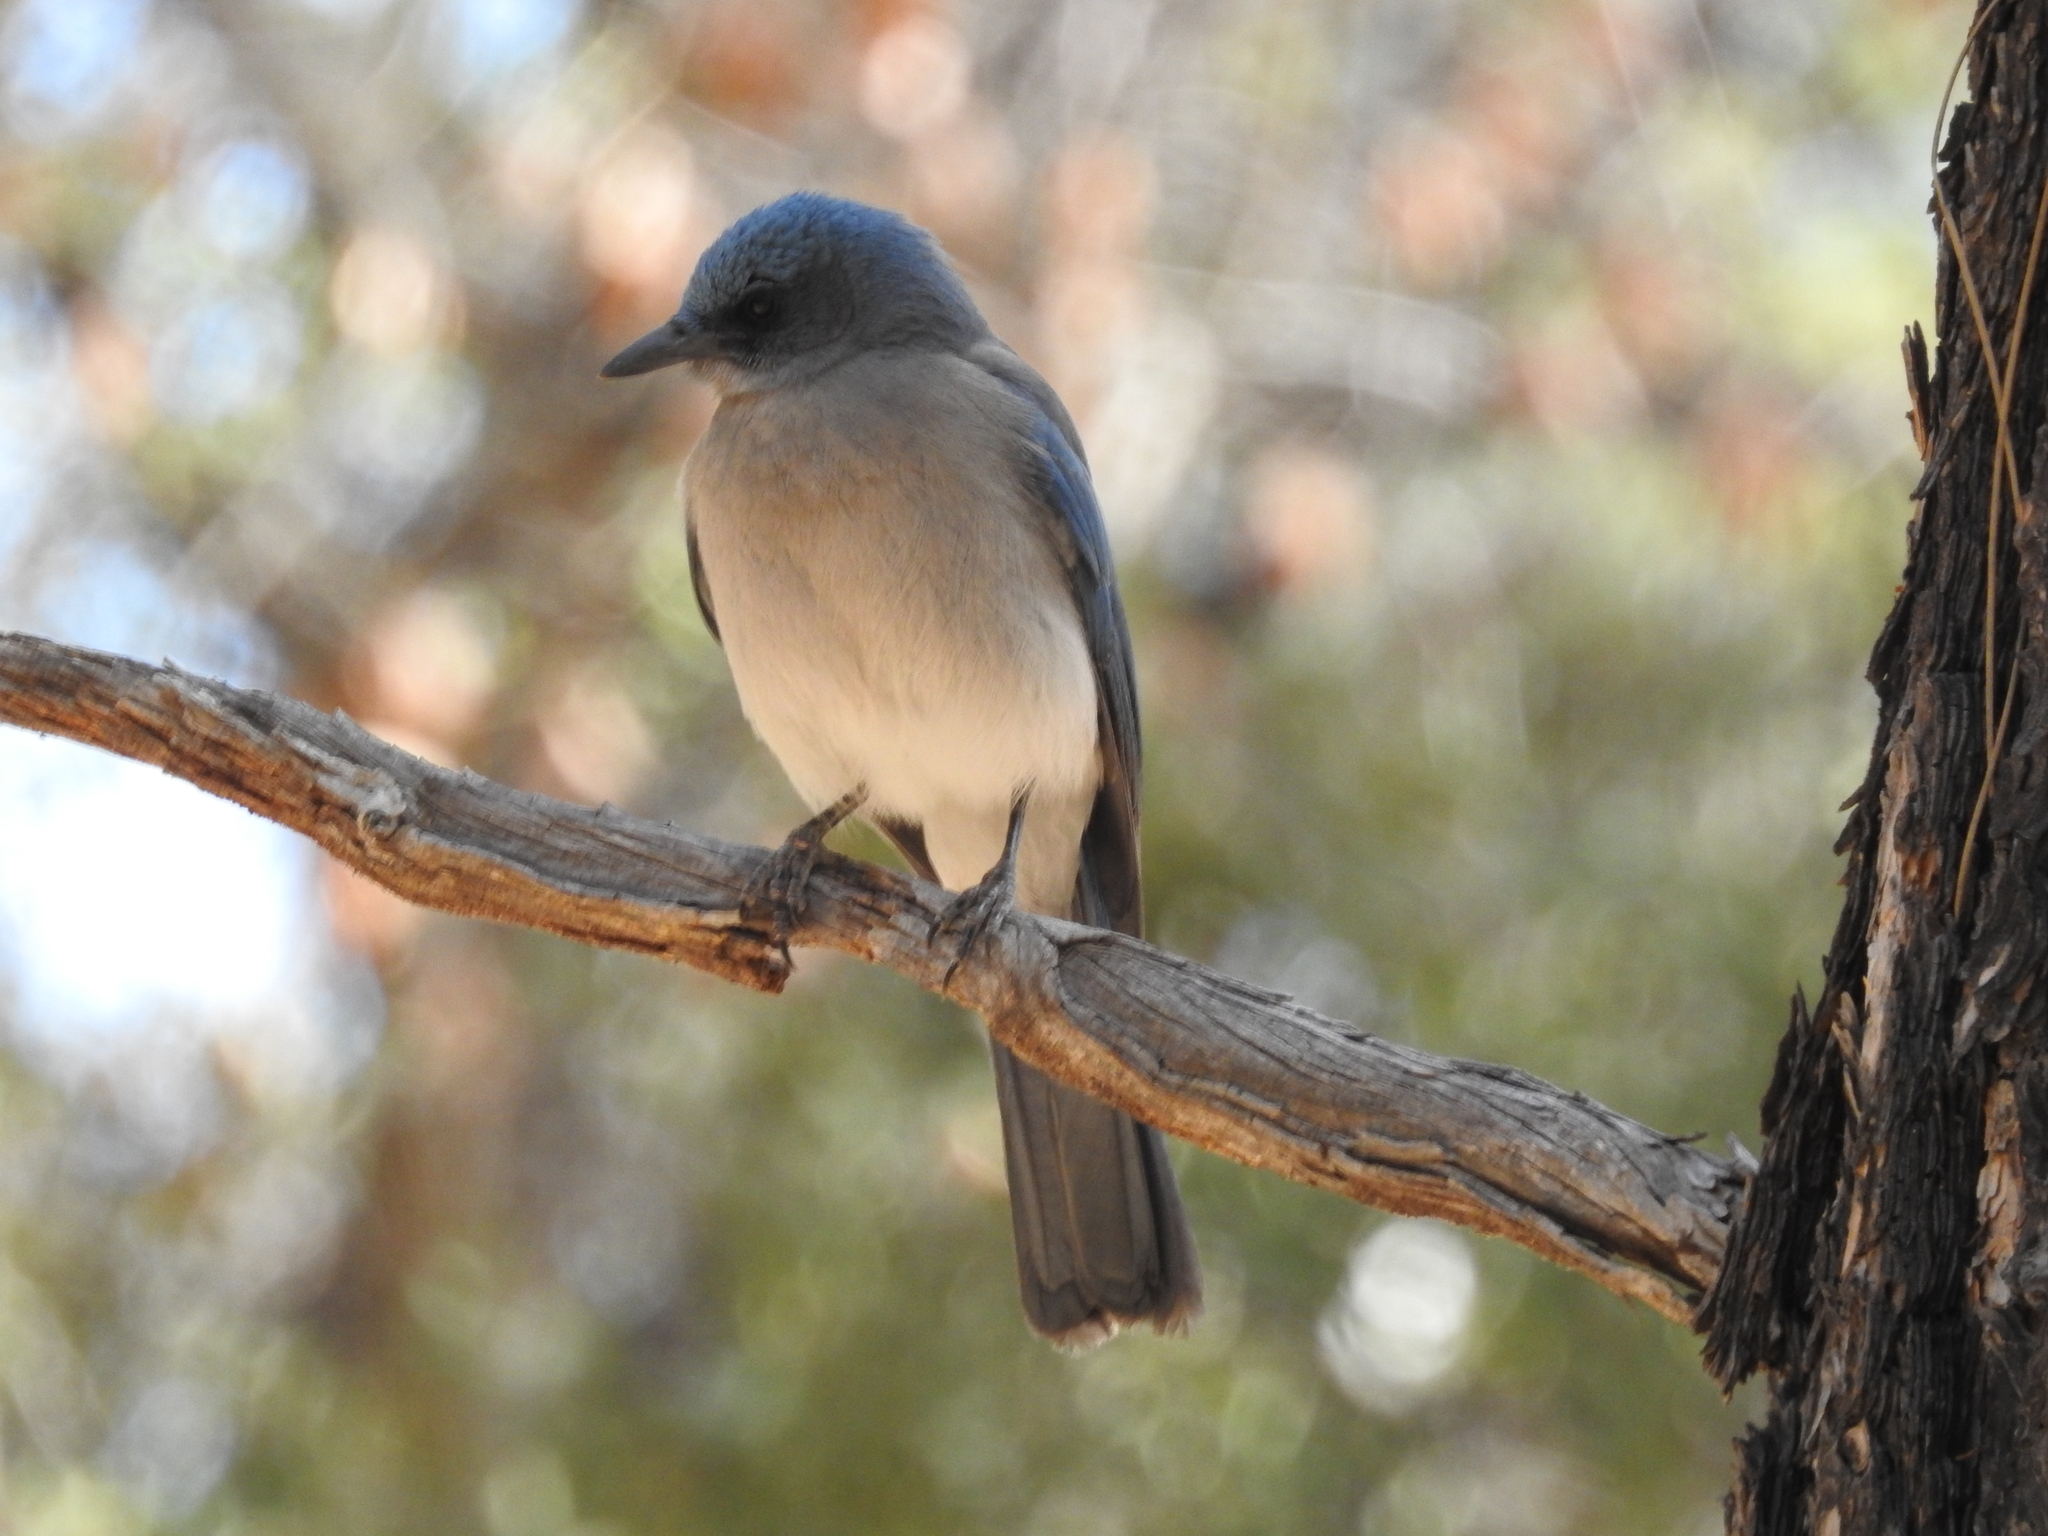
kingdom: Animalia
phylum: Chordata
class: Aves
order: Passeriformes
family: Corvidae
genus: Aphelocoma
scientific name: Aphelocoma wollweberi
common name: Mexican jay
